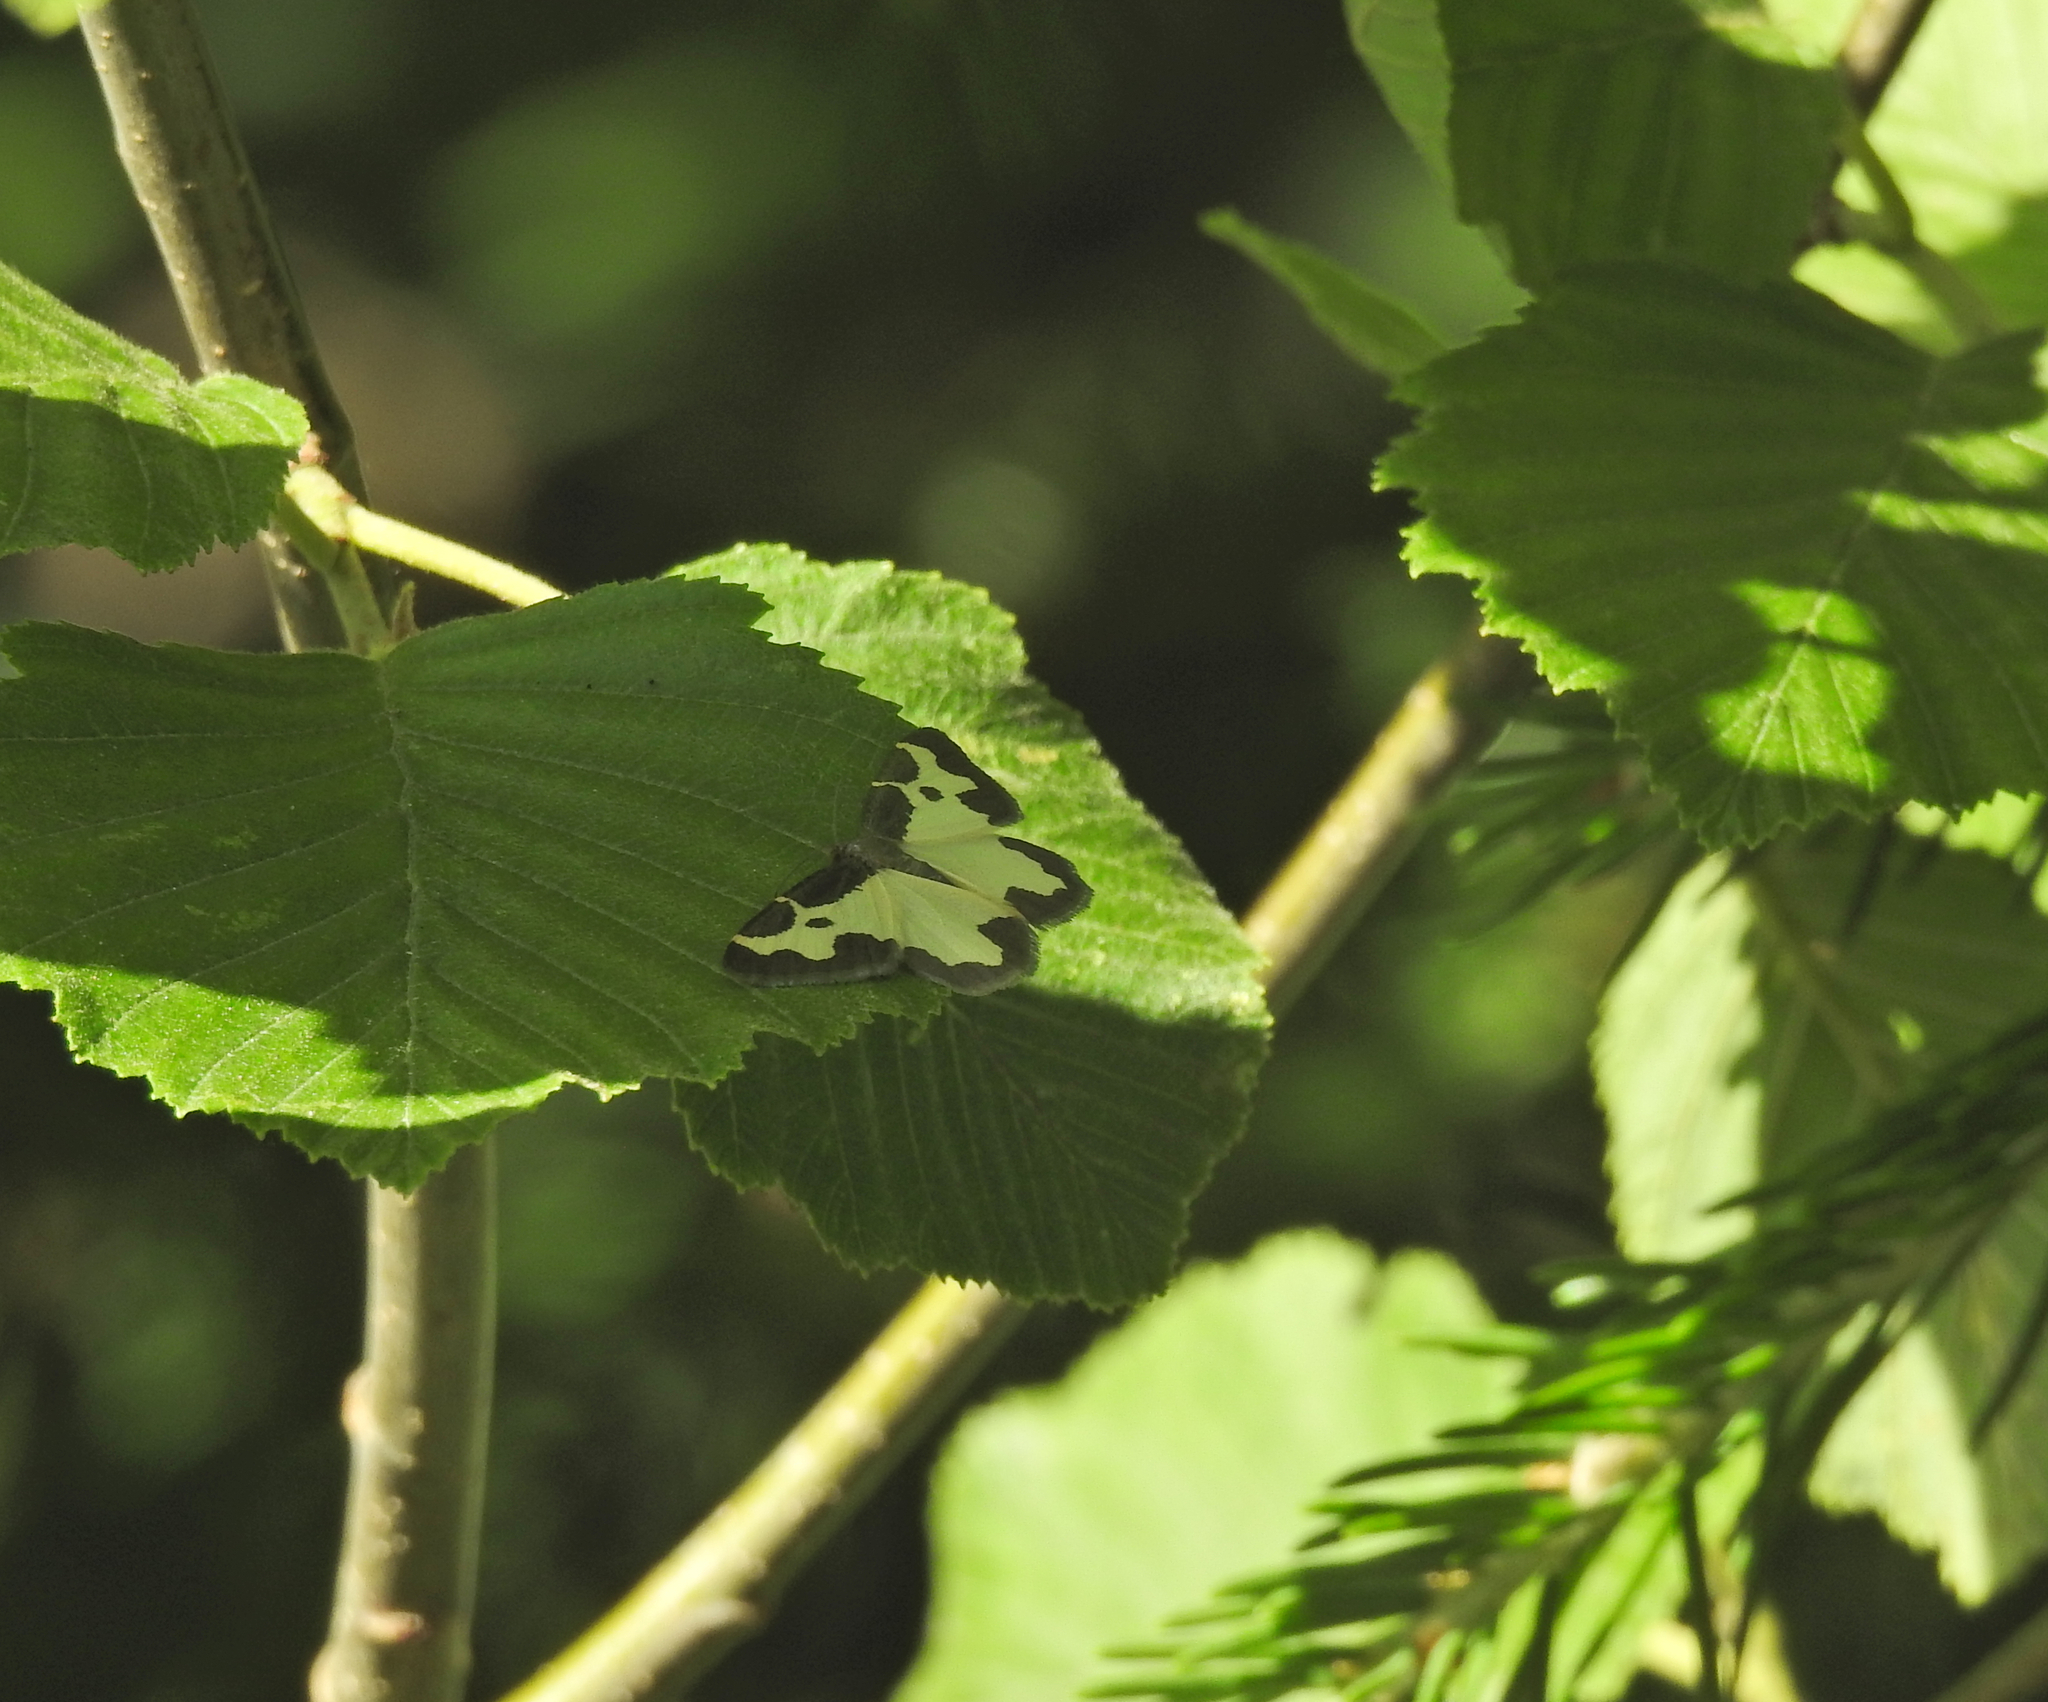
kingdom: Animalia
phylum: Arthropoda
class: Insecta
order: Lepidoptera
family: Geometridae
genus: Lomaspilis
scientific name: Lomaspilis marginata
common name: Clouded border
